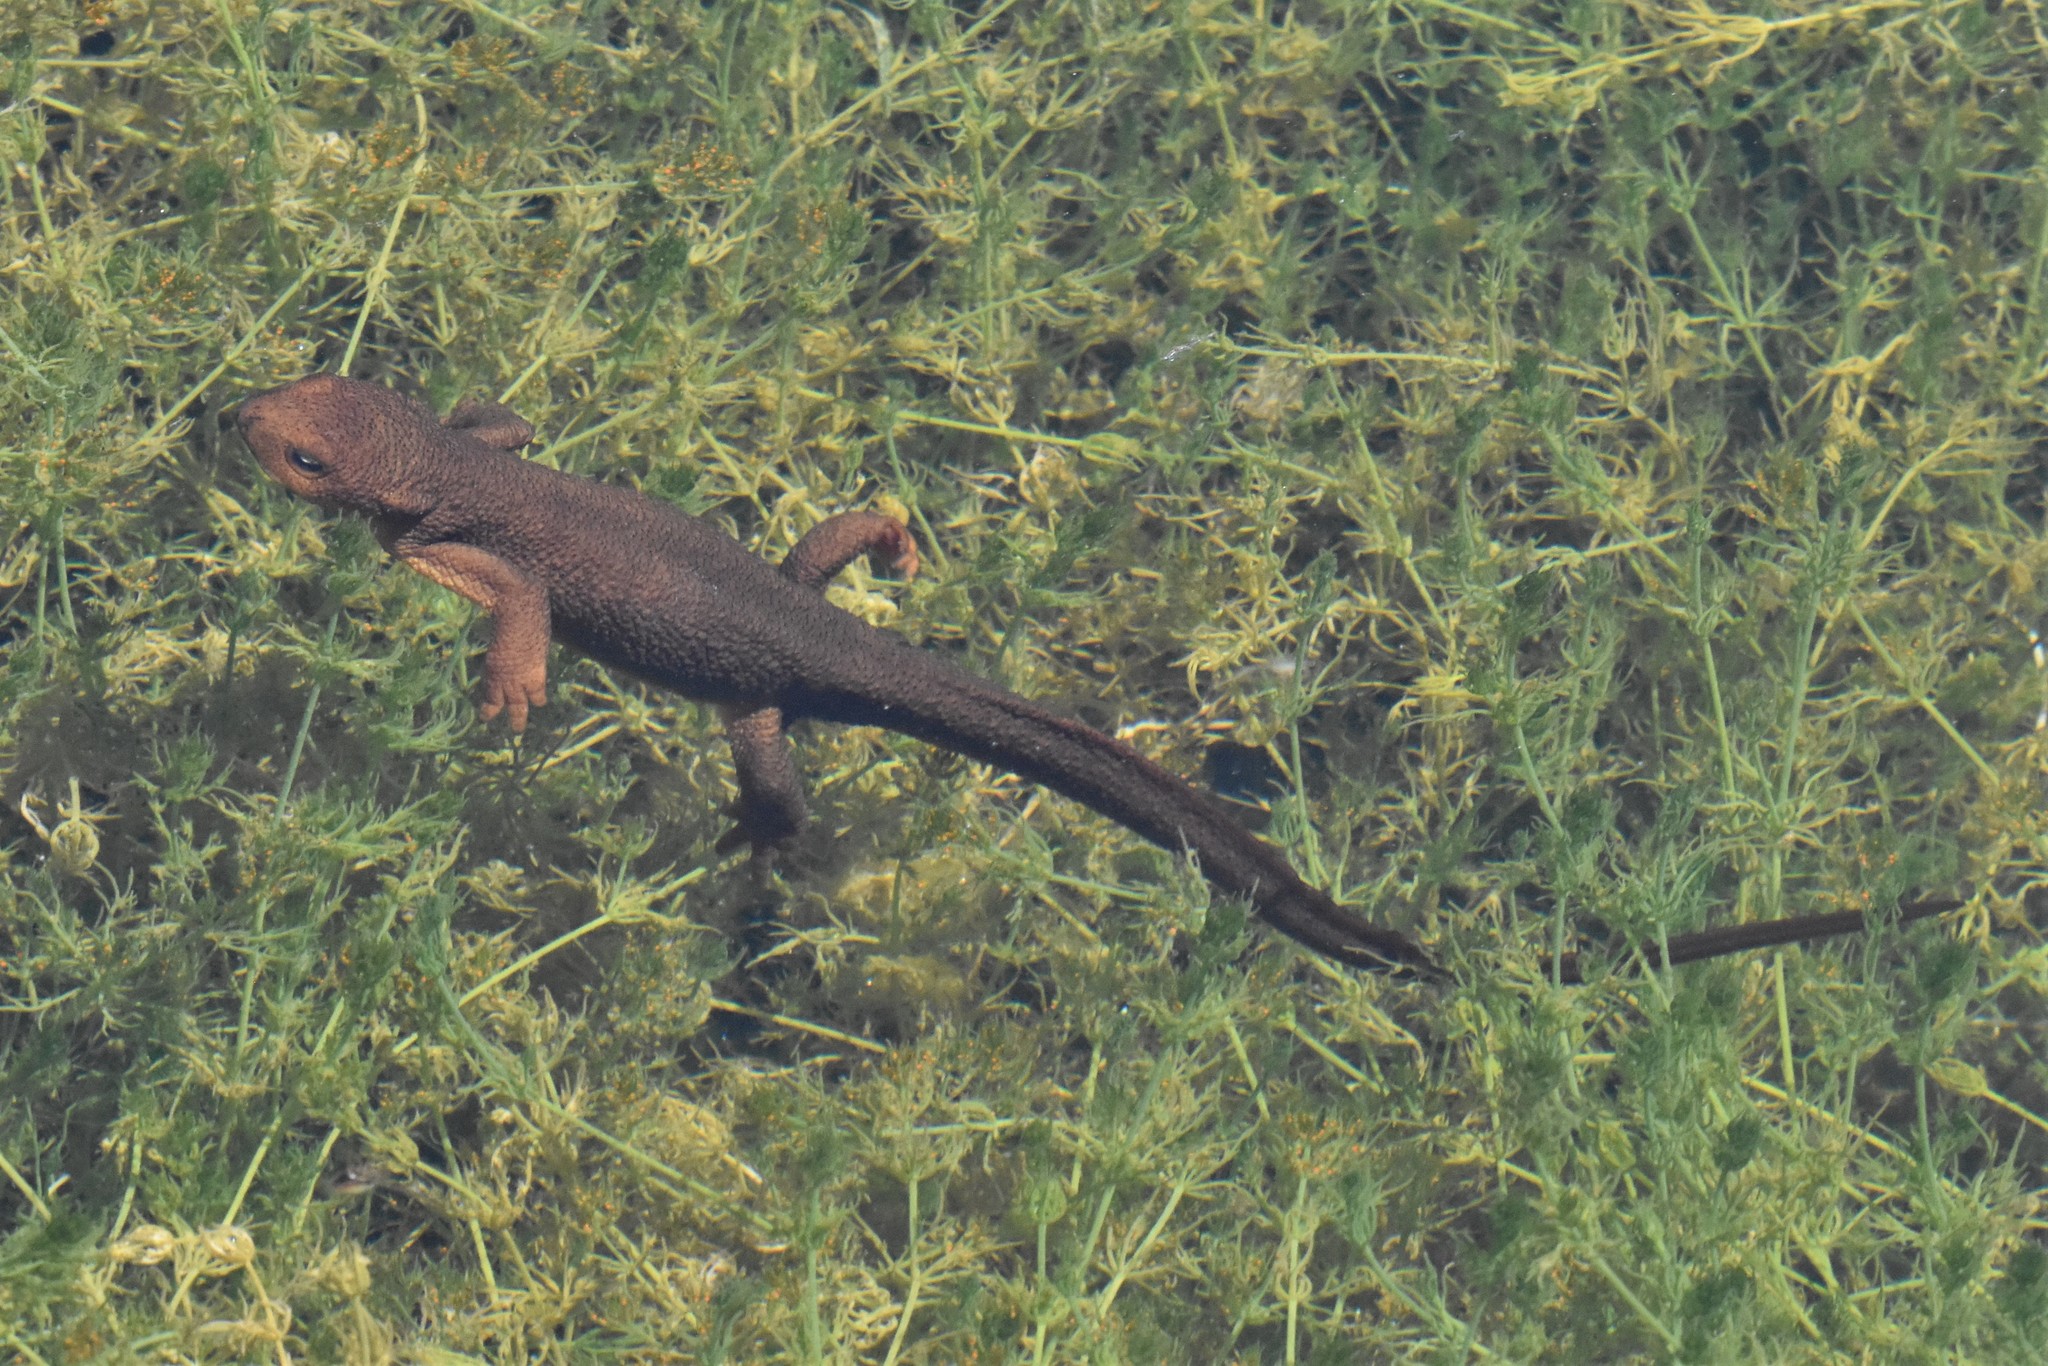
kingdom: Animalia
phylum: Chordata
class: Amphibia
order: Caudata
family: Salamandridae
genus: Taricha
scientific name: Taricha granulosa
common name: Roughskin newt
